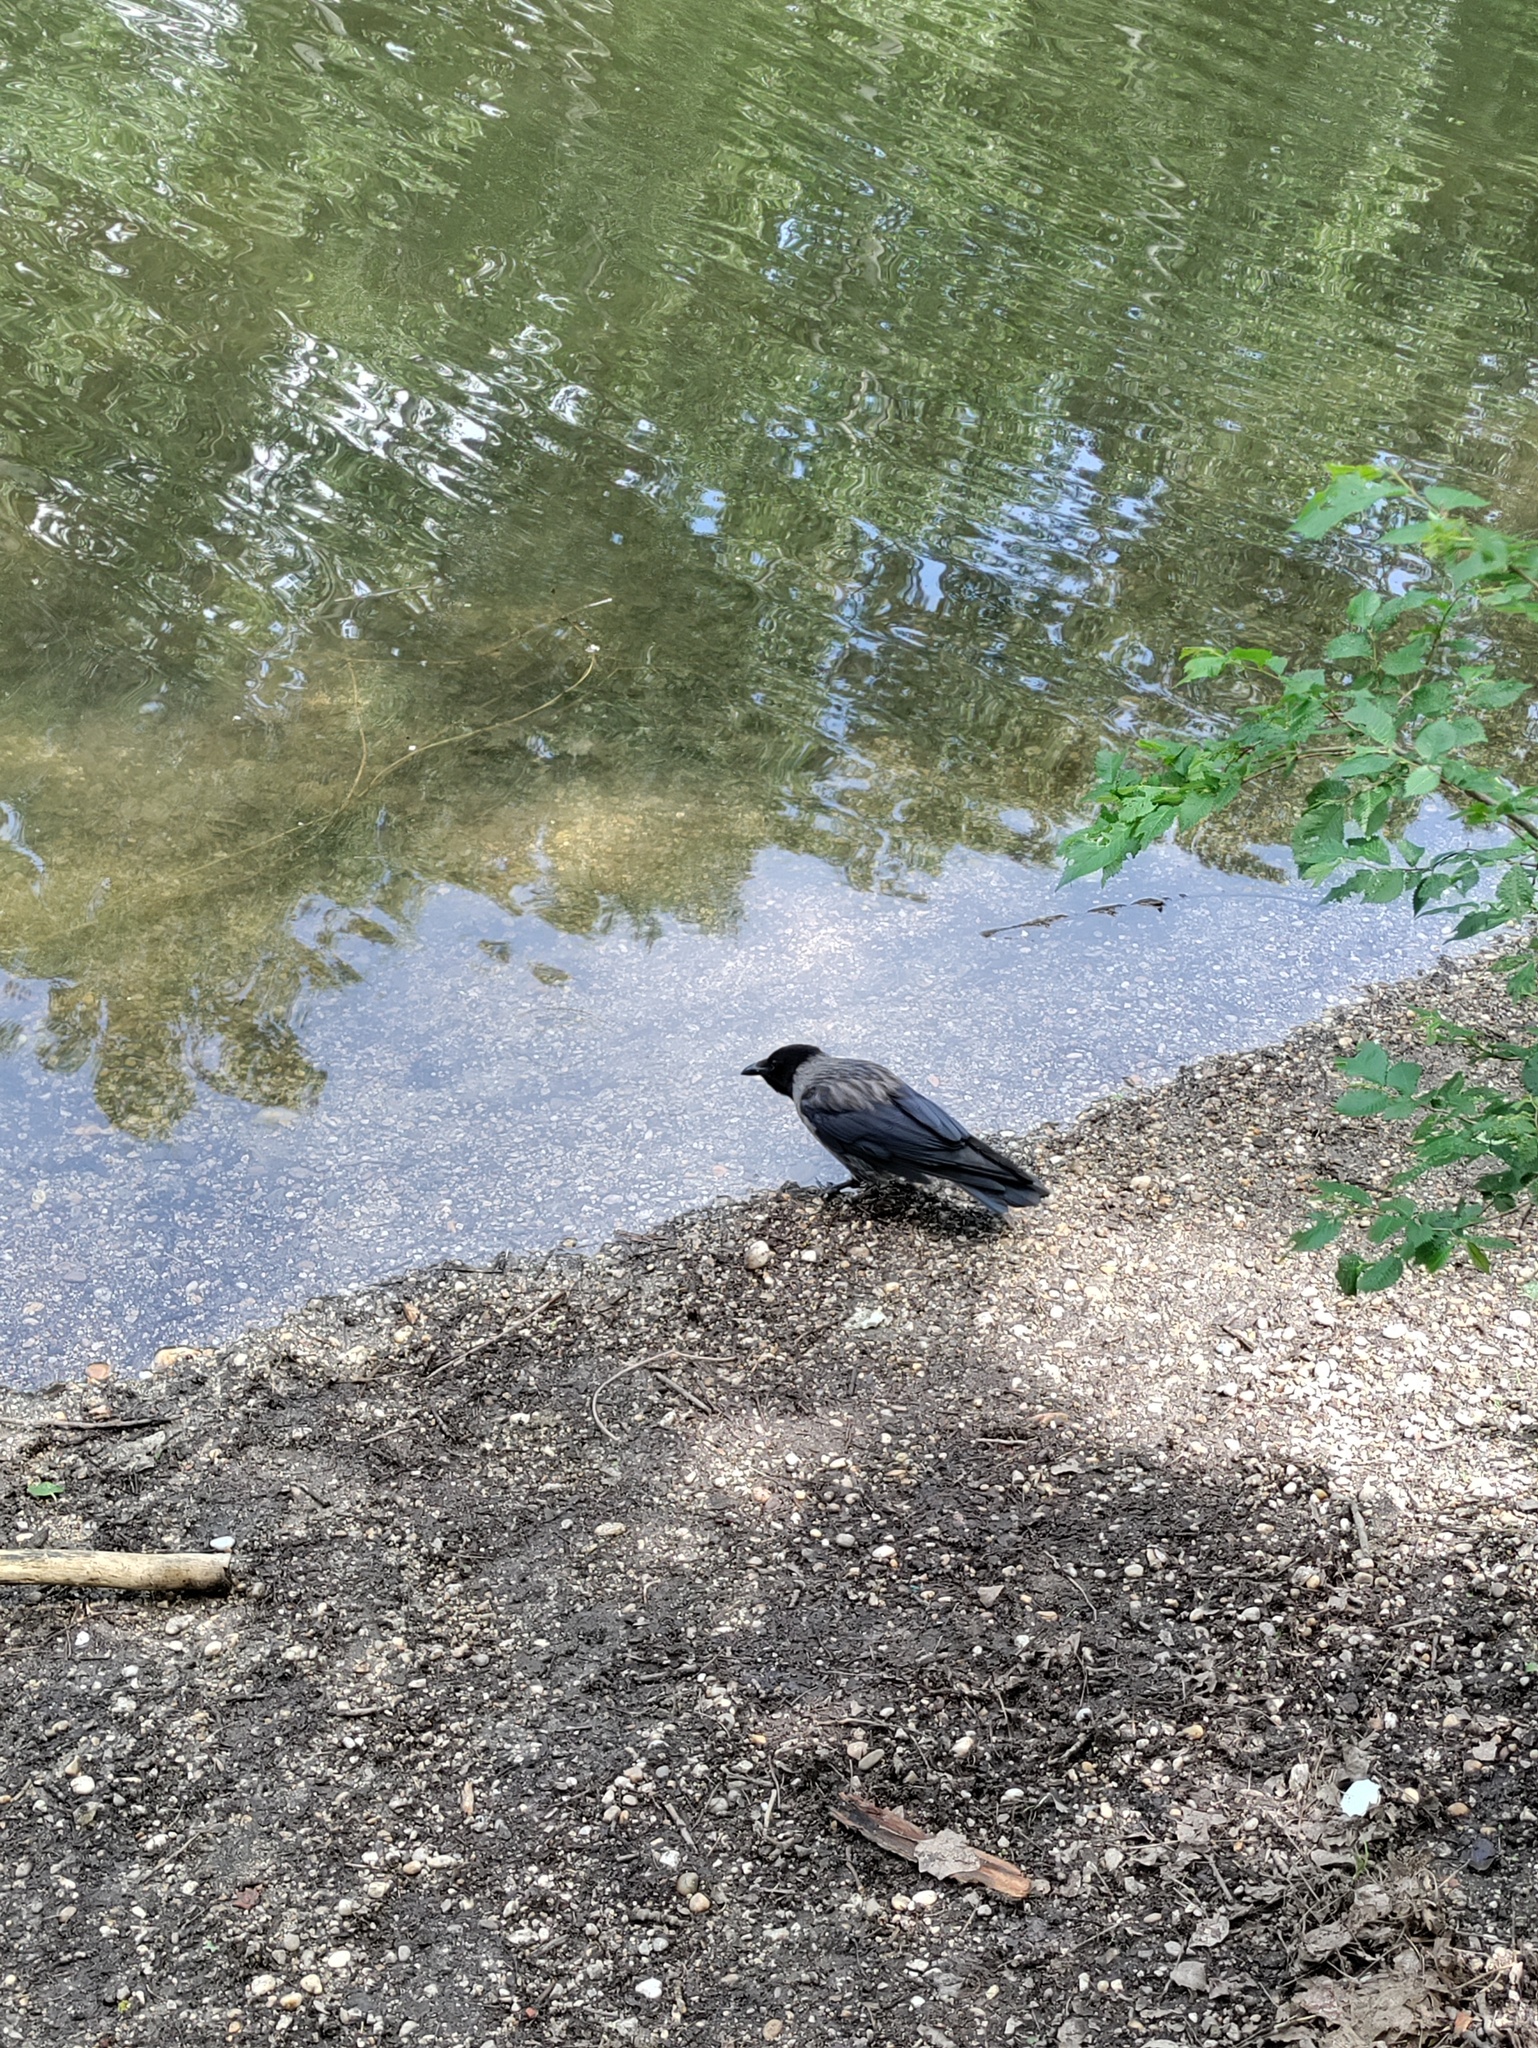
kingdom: Animalia
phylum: Chordata
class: Aves
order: Passeriformes
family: Corvidae
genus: Corvus
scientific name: Corvus
